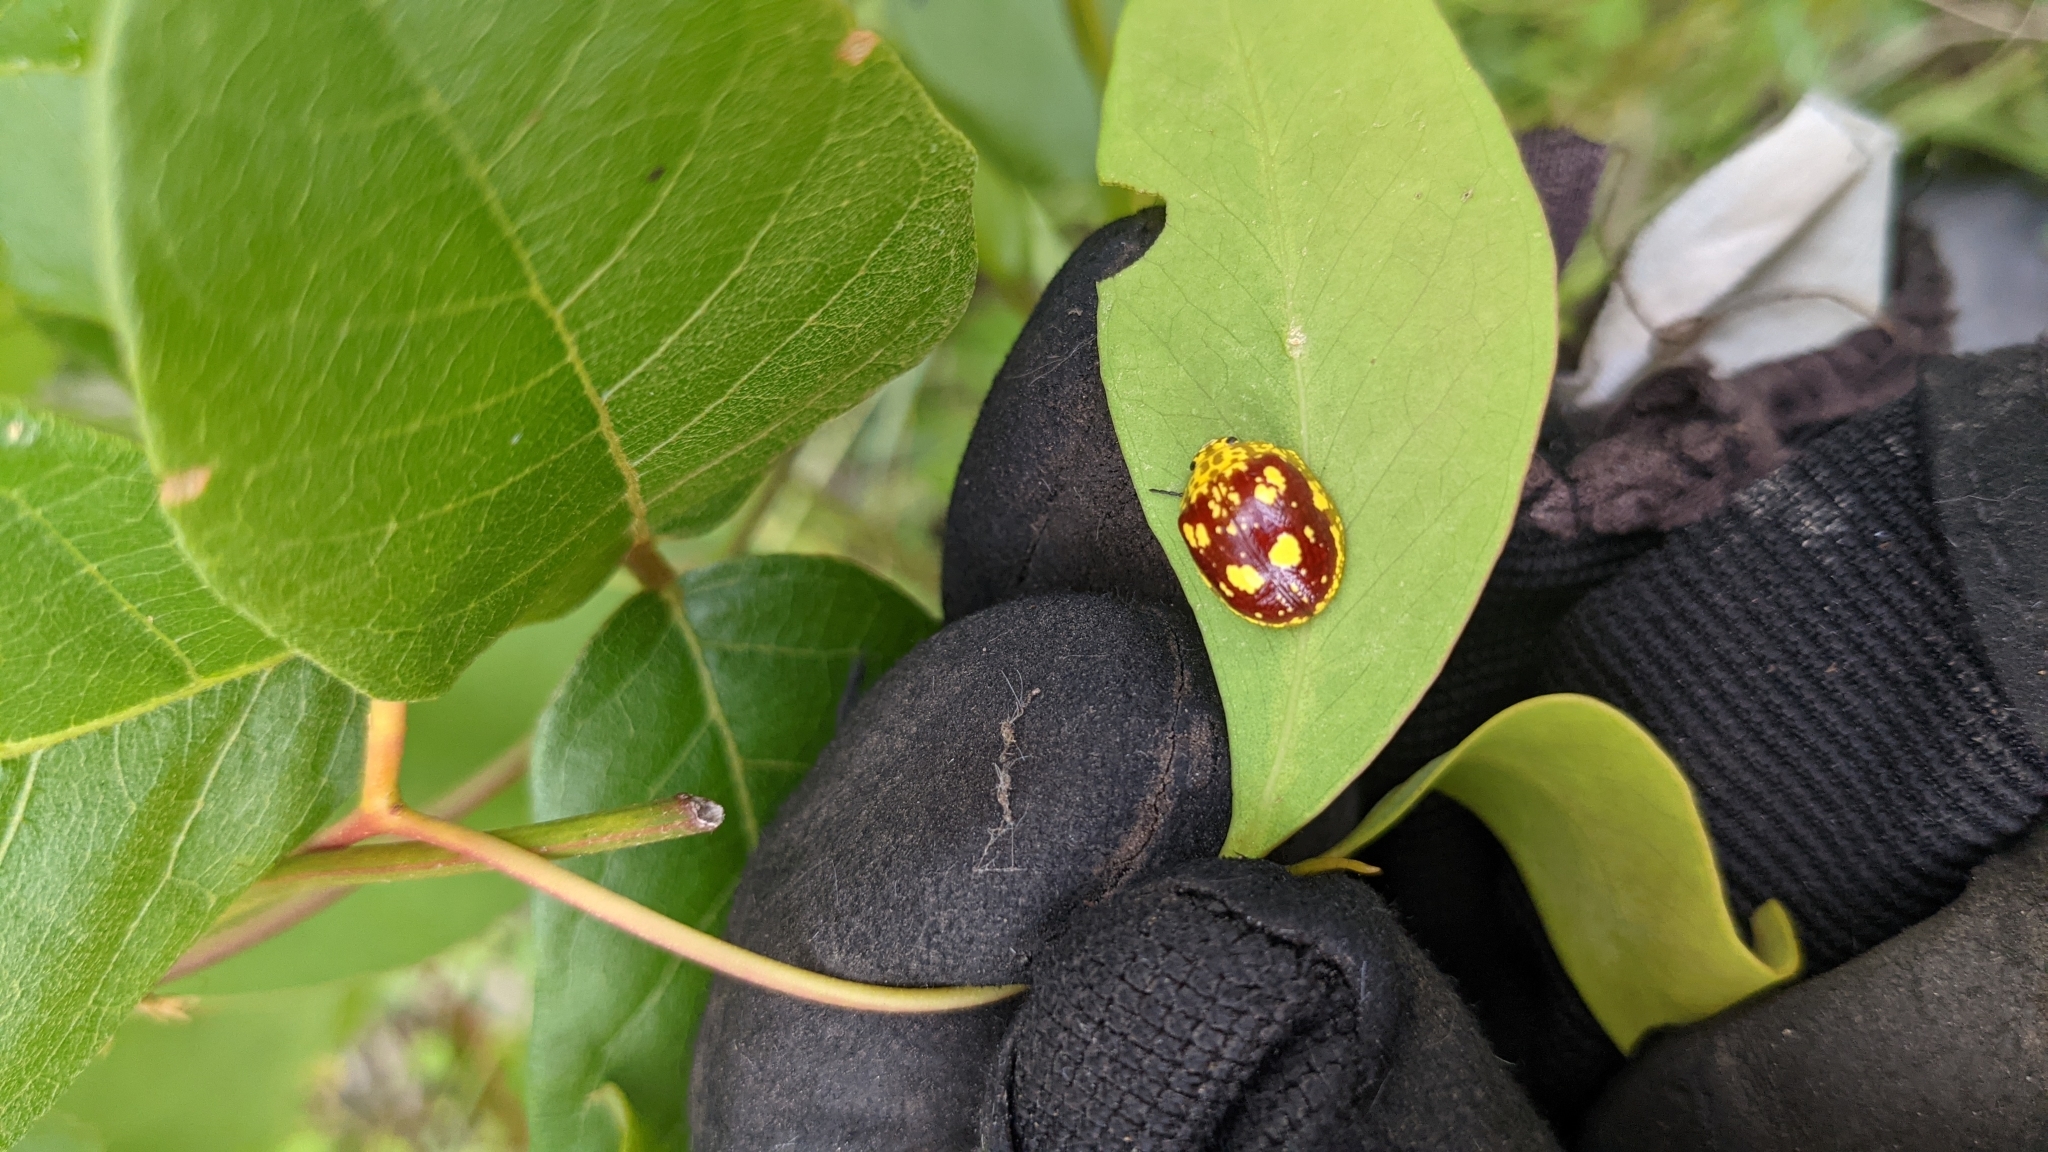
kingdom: Animalia
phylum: Arthropoda
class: Insecta
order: Coleoptera
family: Chrysomelidae
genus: Paropsis
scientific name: Paropsis maculata
